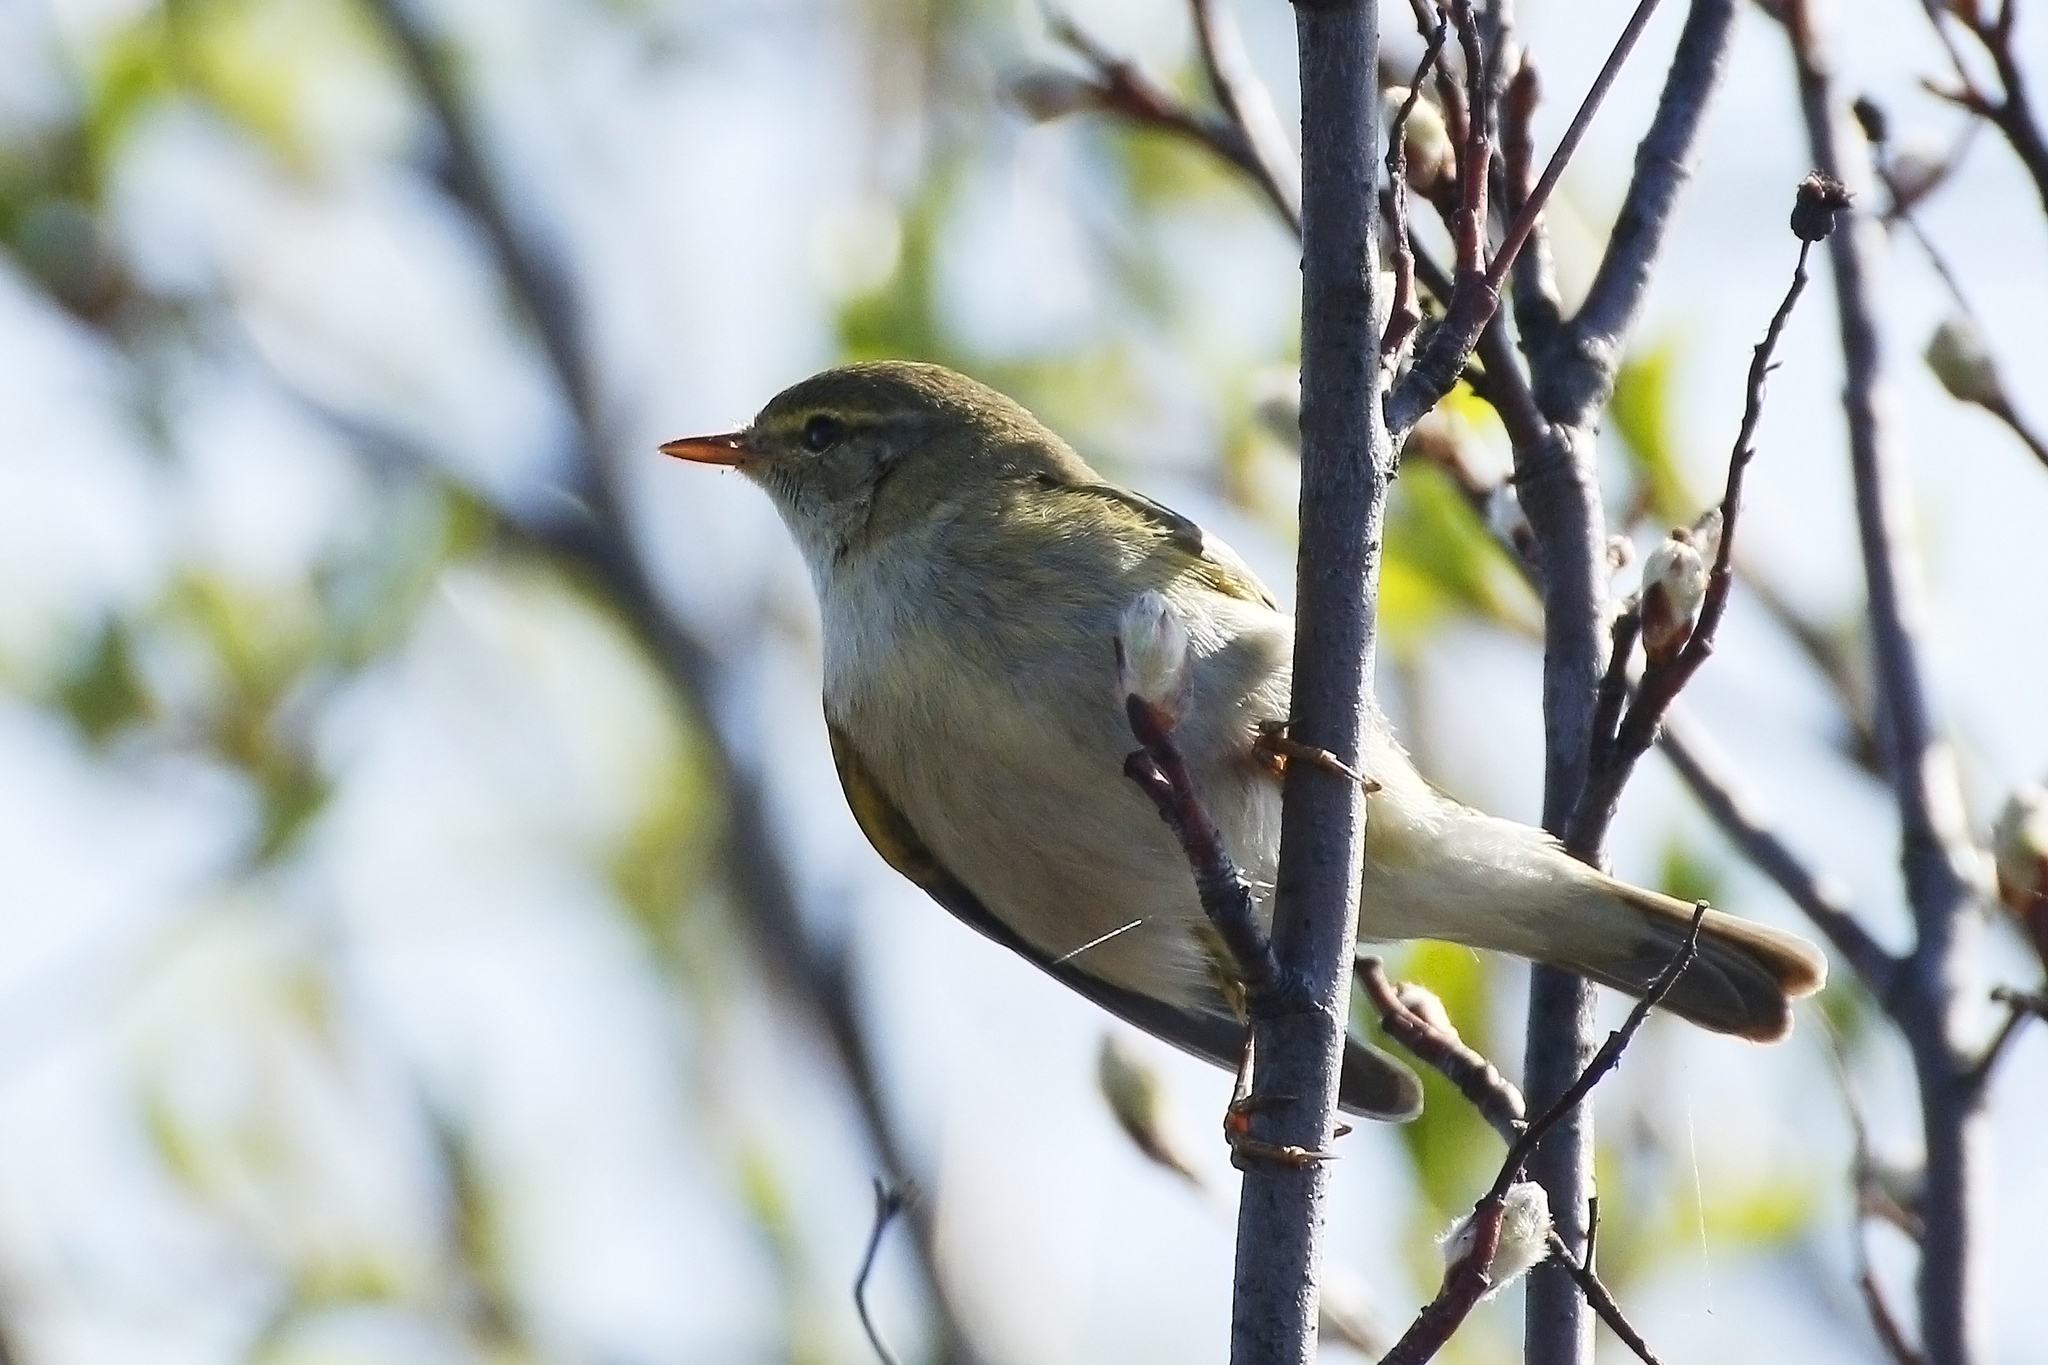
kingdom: Animalia
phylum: Chordata
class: Aves
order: Passeriformes
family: Phylloscopidae
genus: Phylloscopus
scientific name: Phylloscopus trochilus
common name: Willow warbler
